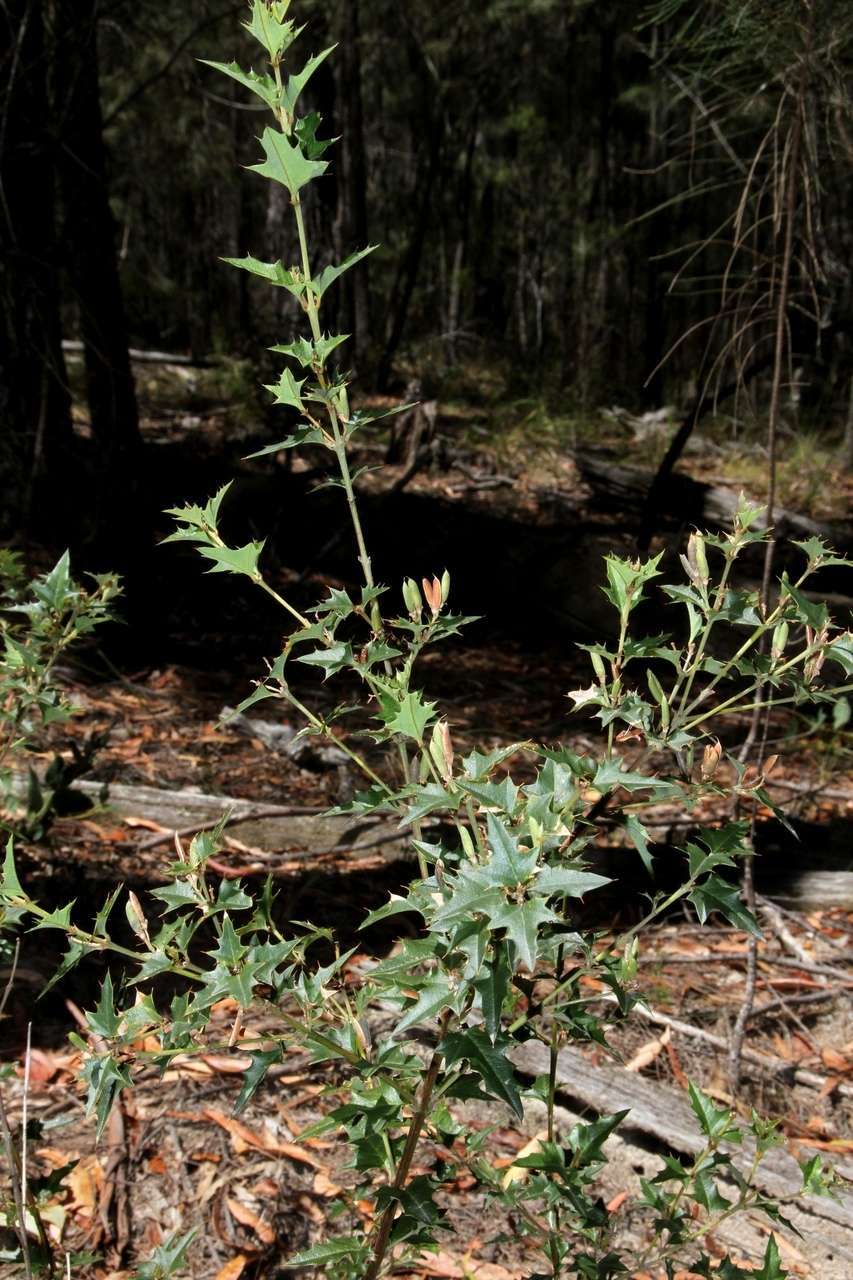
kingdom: Plantae
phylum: Tracheophyta
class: Magnoliopsida
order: Fabales
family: Fabaceae
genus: Podolobium
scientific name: Podolobium ilicifolium
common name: Native holly
